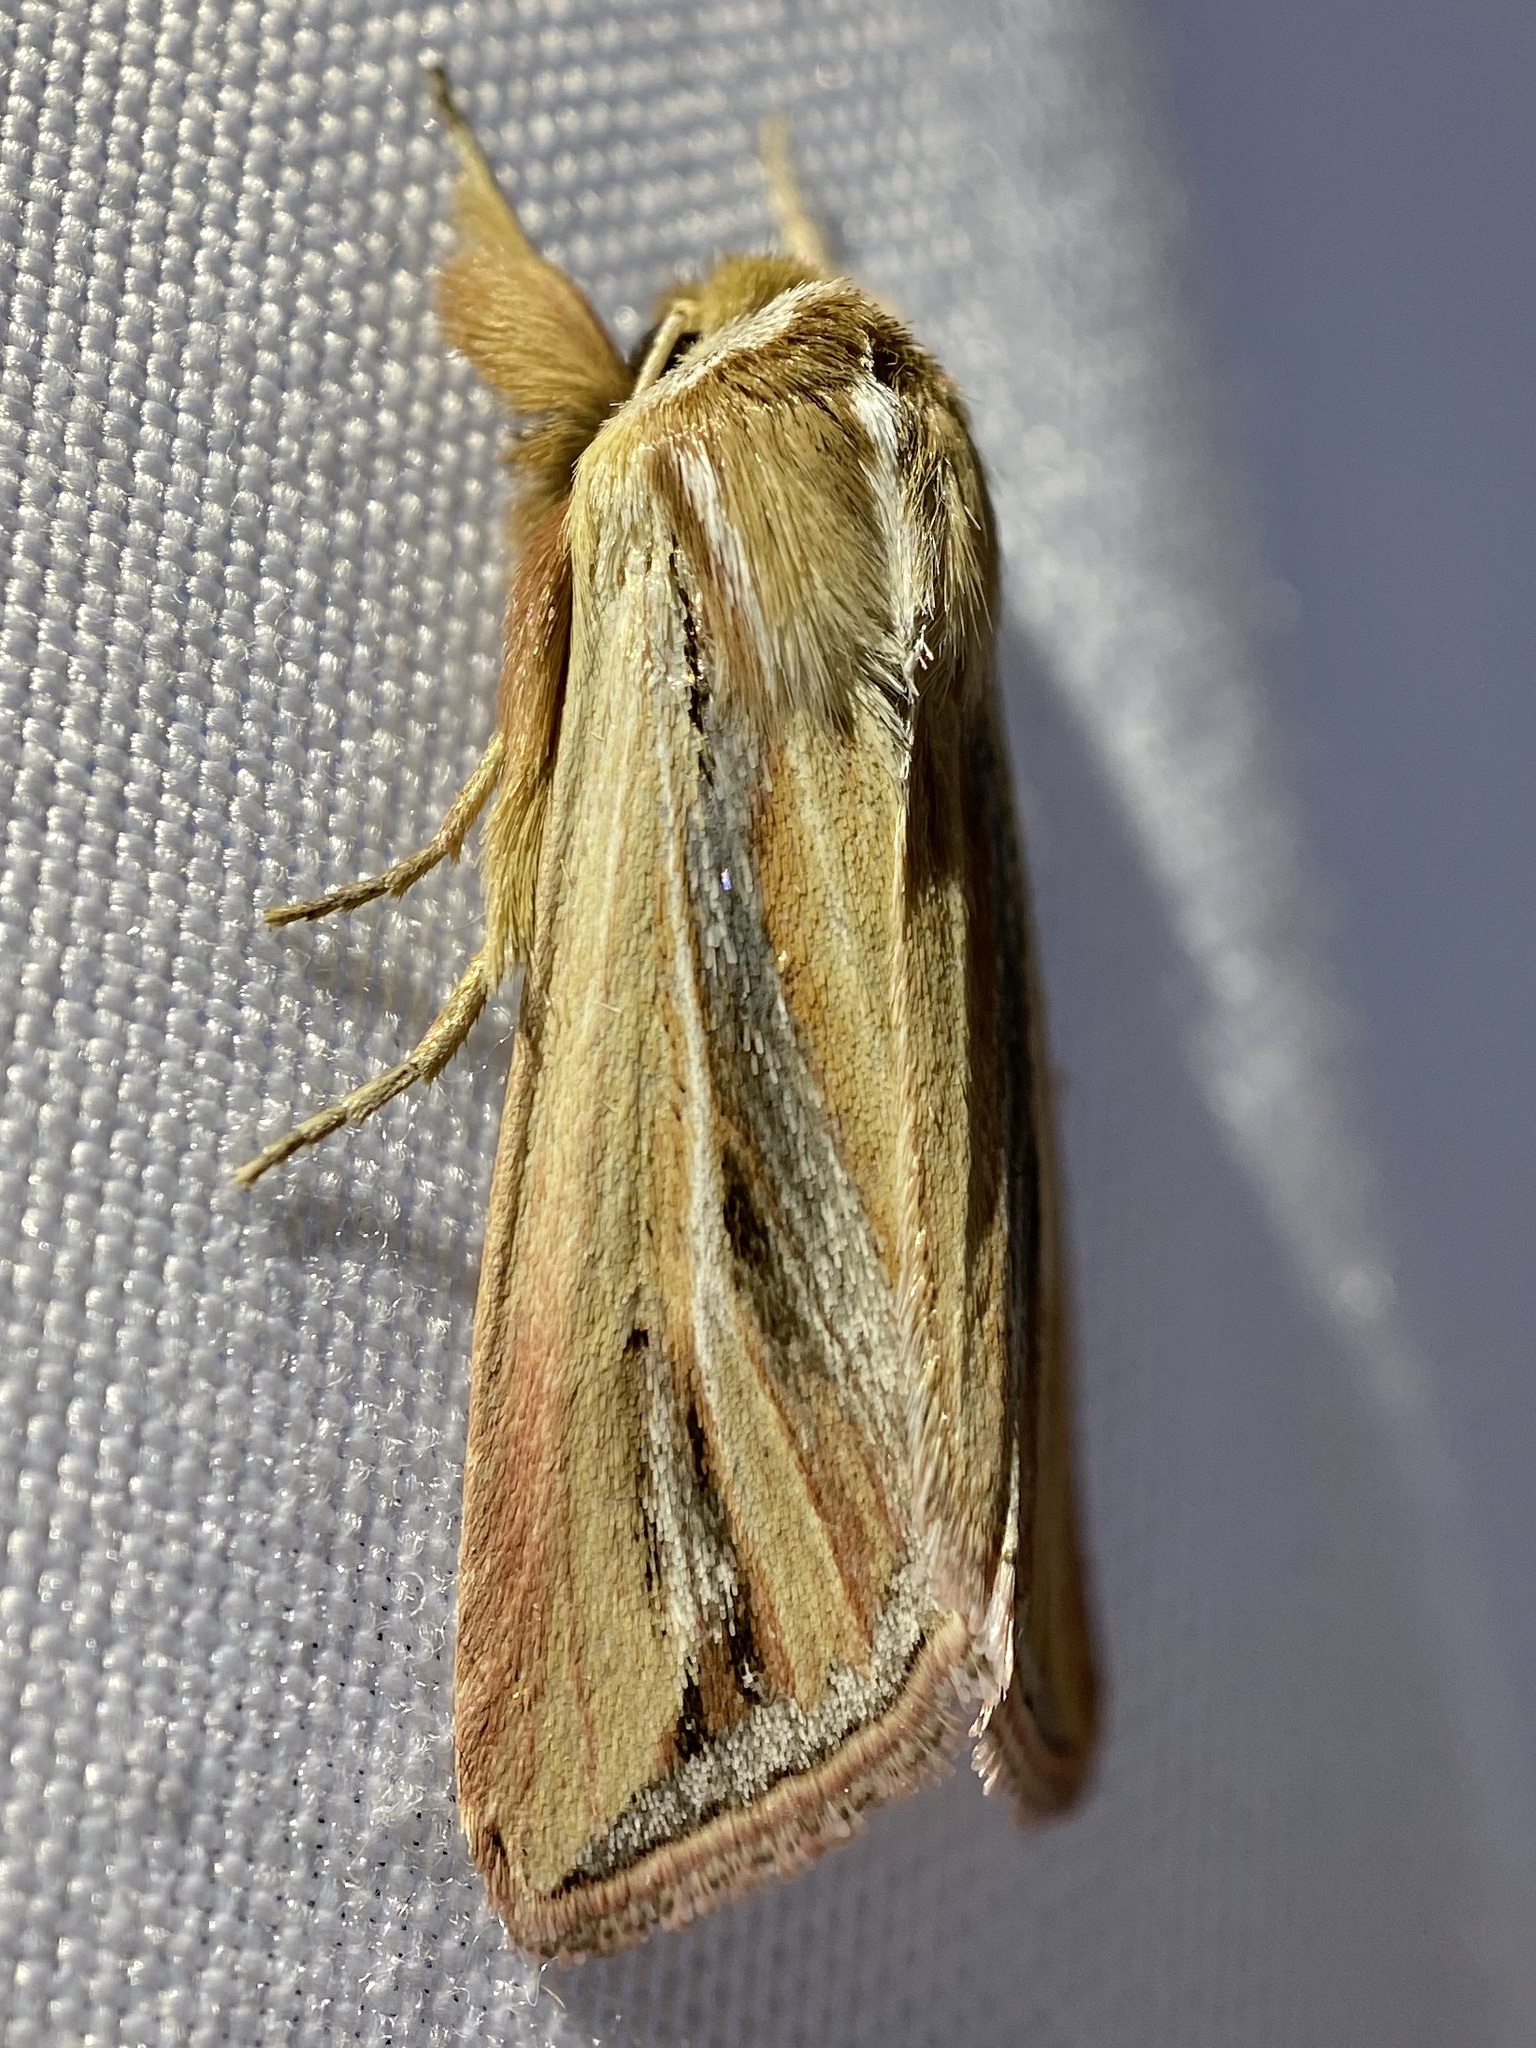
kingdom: Animalia
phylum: Arthropoda
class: Insecta
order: Lepidoptera
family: Noctuidae
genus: Dargida
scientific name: Dargida tetera
